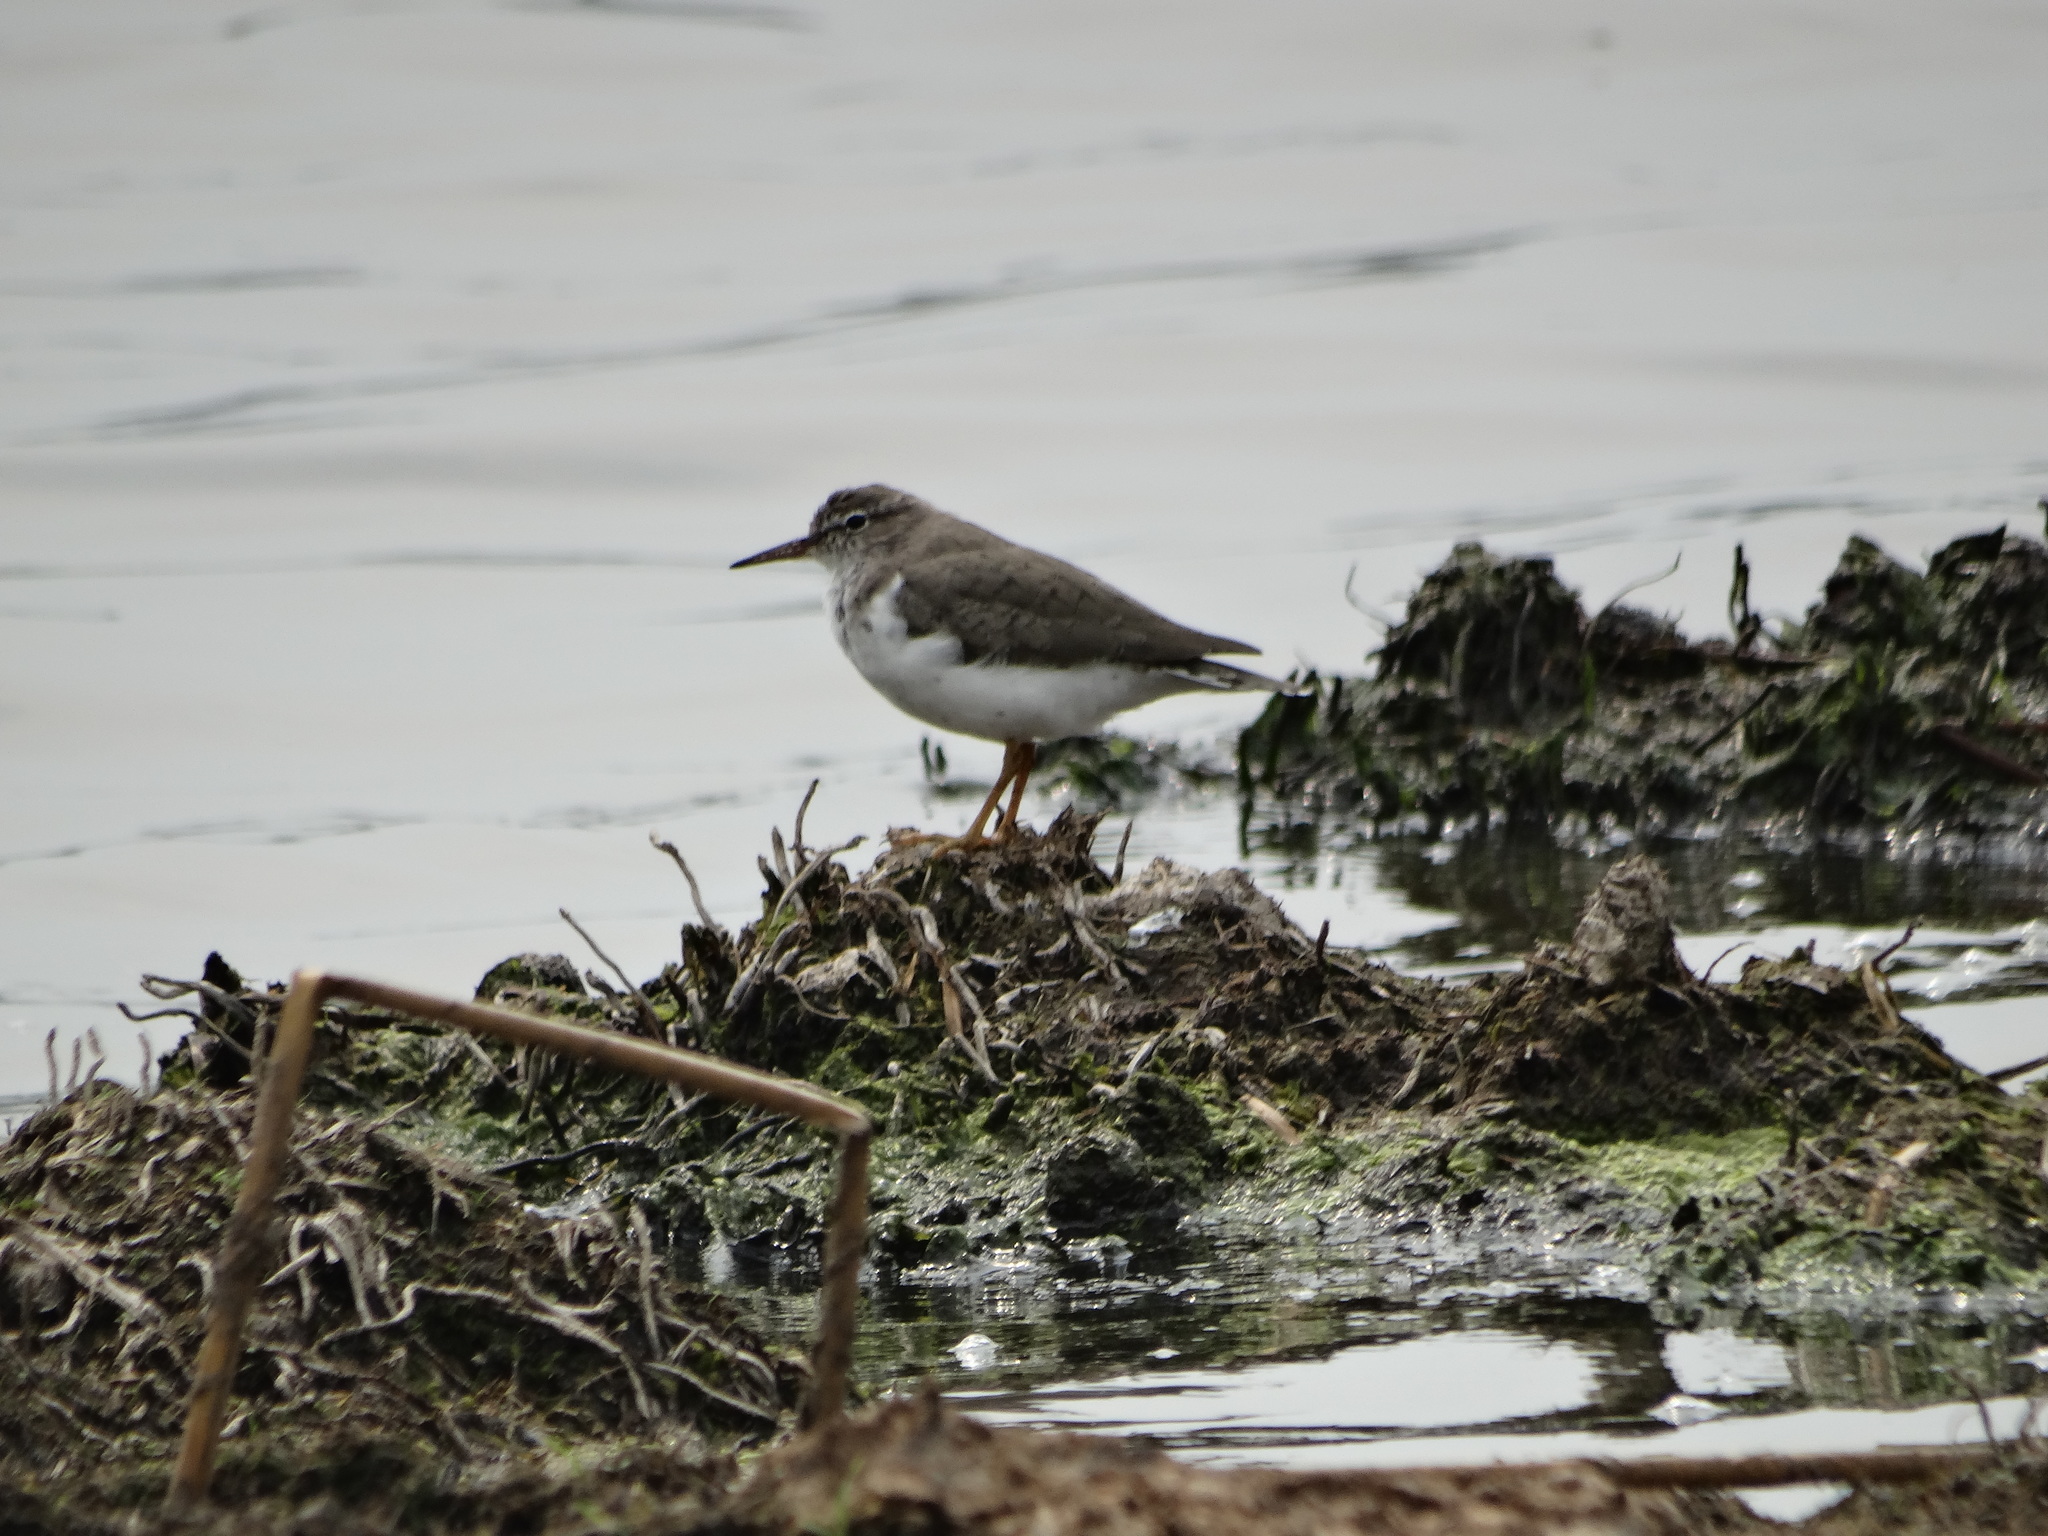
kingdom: Animalia
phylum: Chordata
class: Aves
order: Charadriiformes
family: Scolopacidae
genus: Actitis
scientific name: Actitis macularius
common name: Spotted sandpiper
